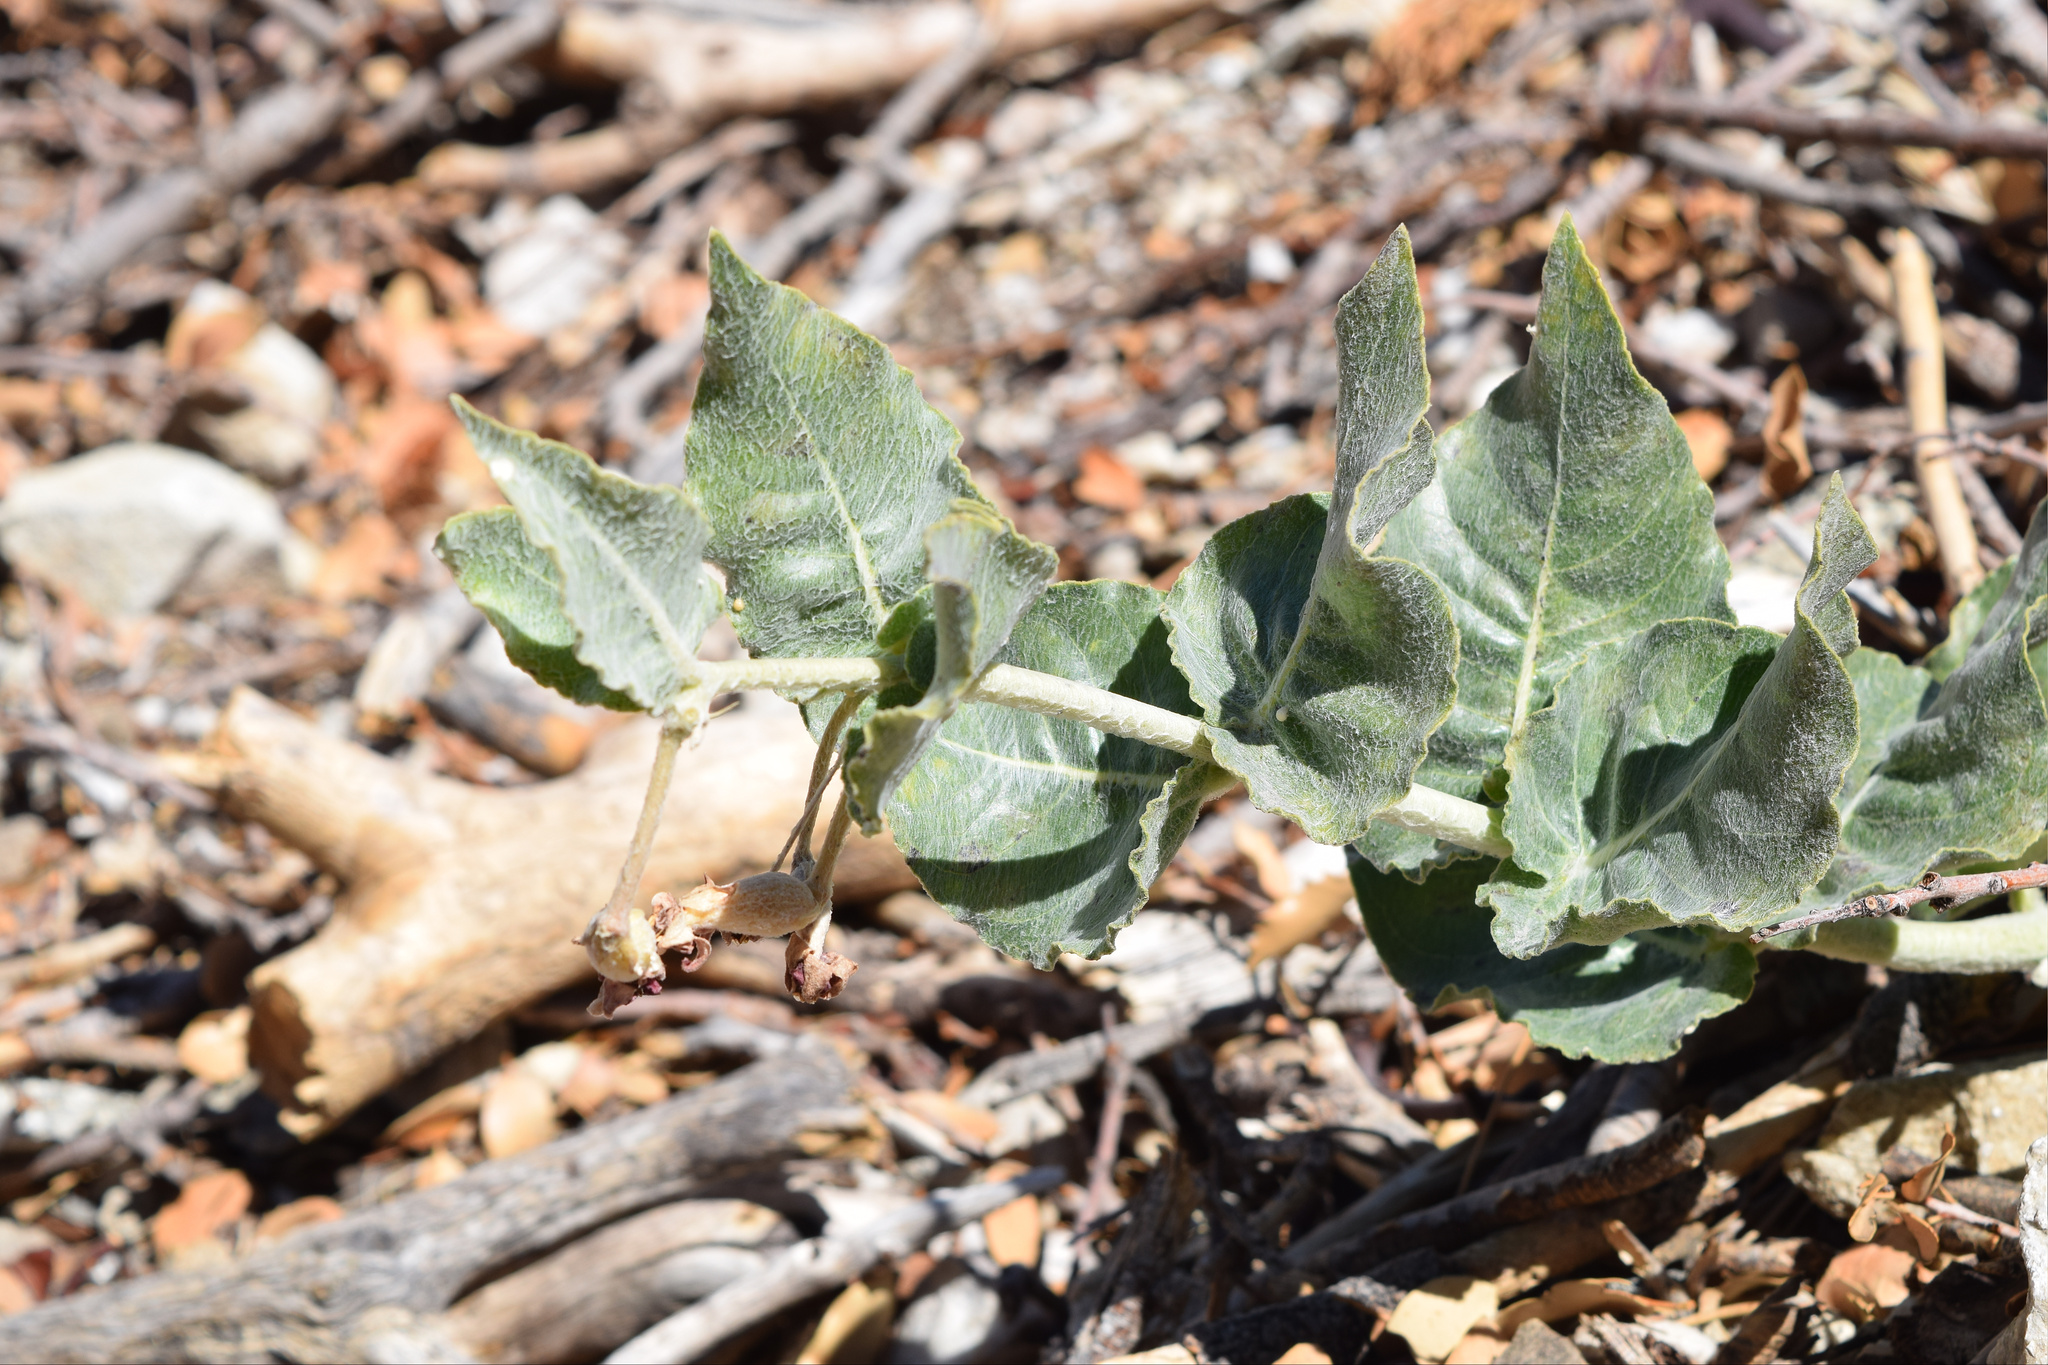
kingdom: Plantae
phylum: Tracheophyta
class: Magnoliopsida
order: Gentianales
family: Apocynaceae
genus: Asclepias
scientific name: Asclepias californica
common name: California milkweed
